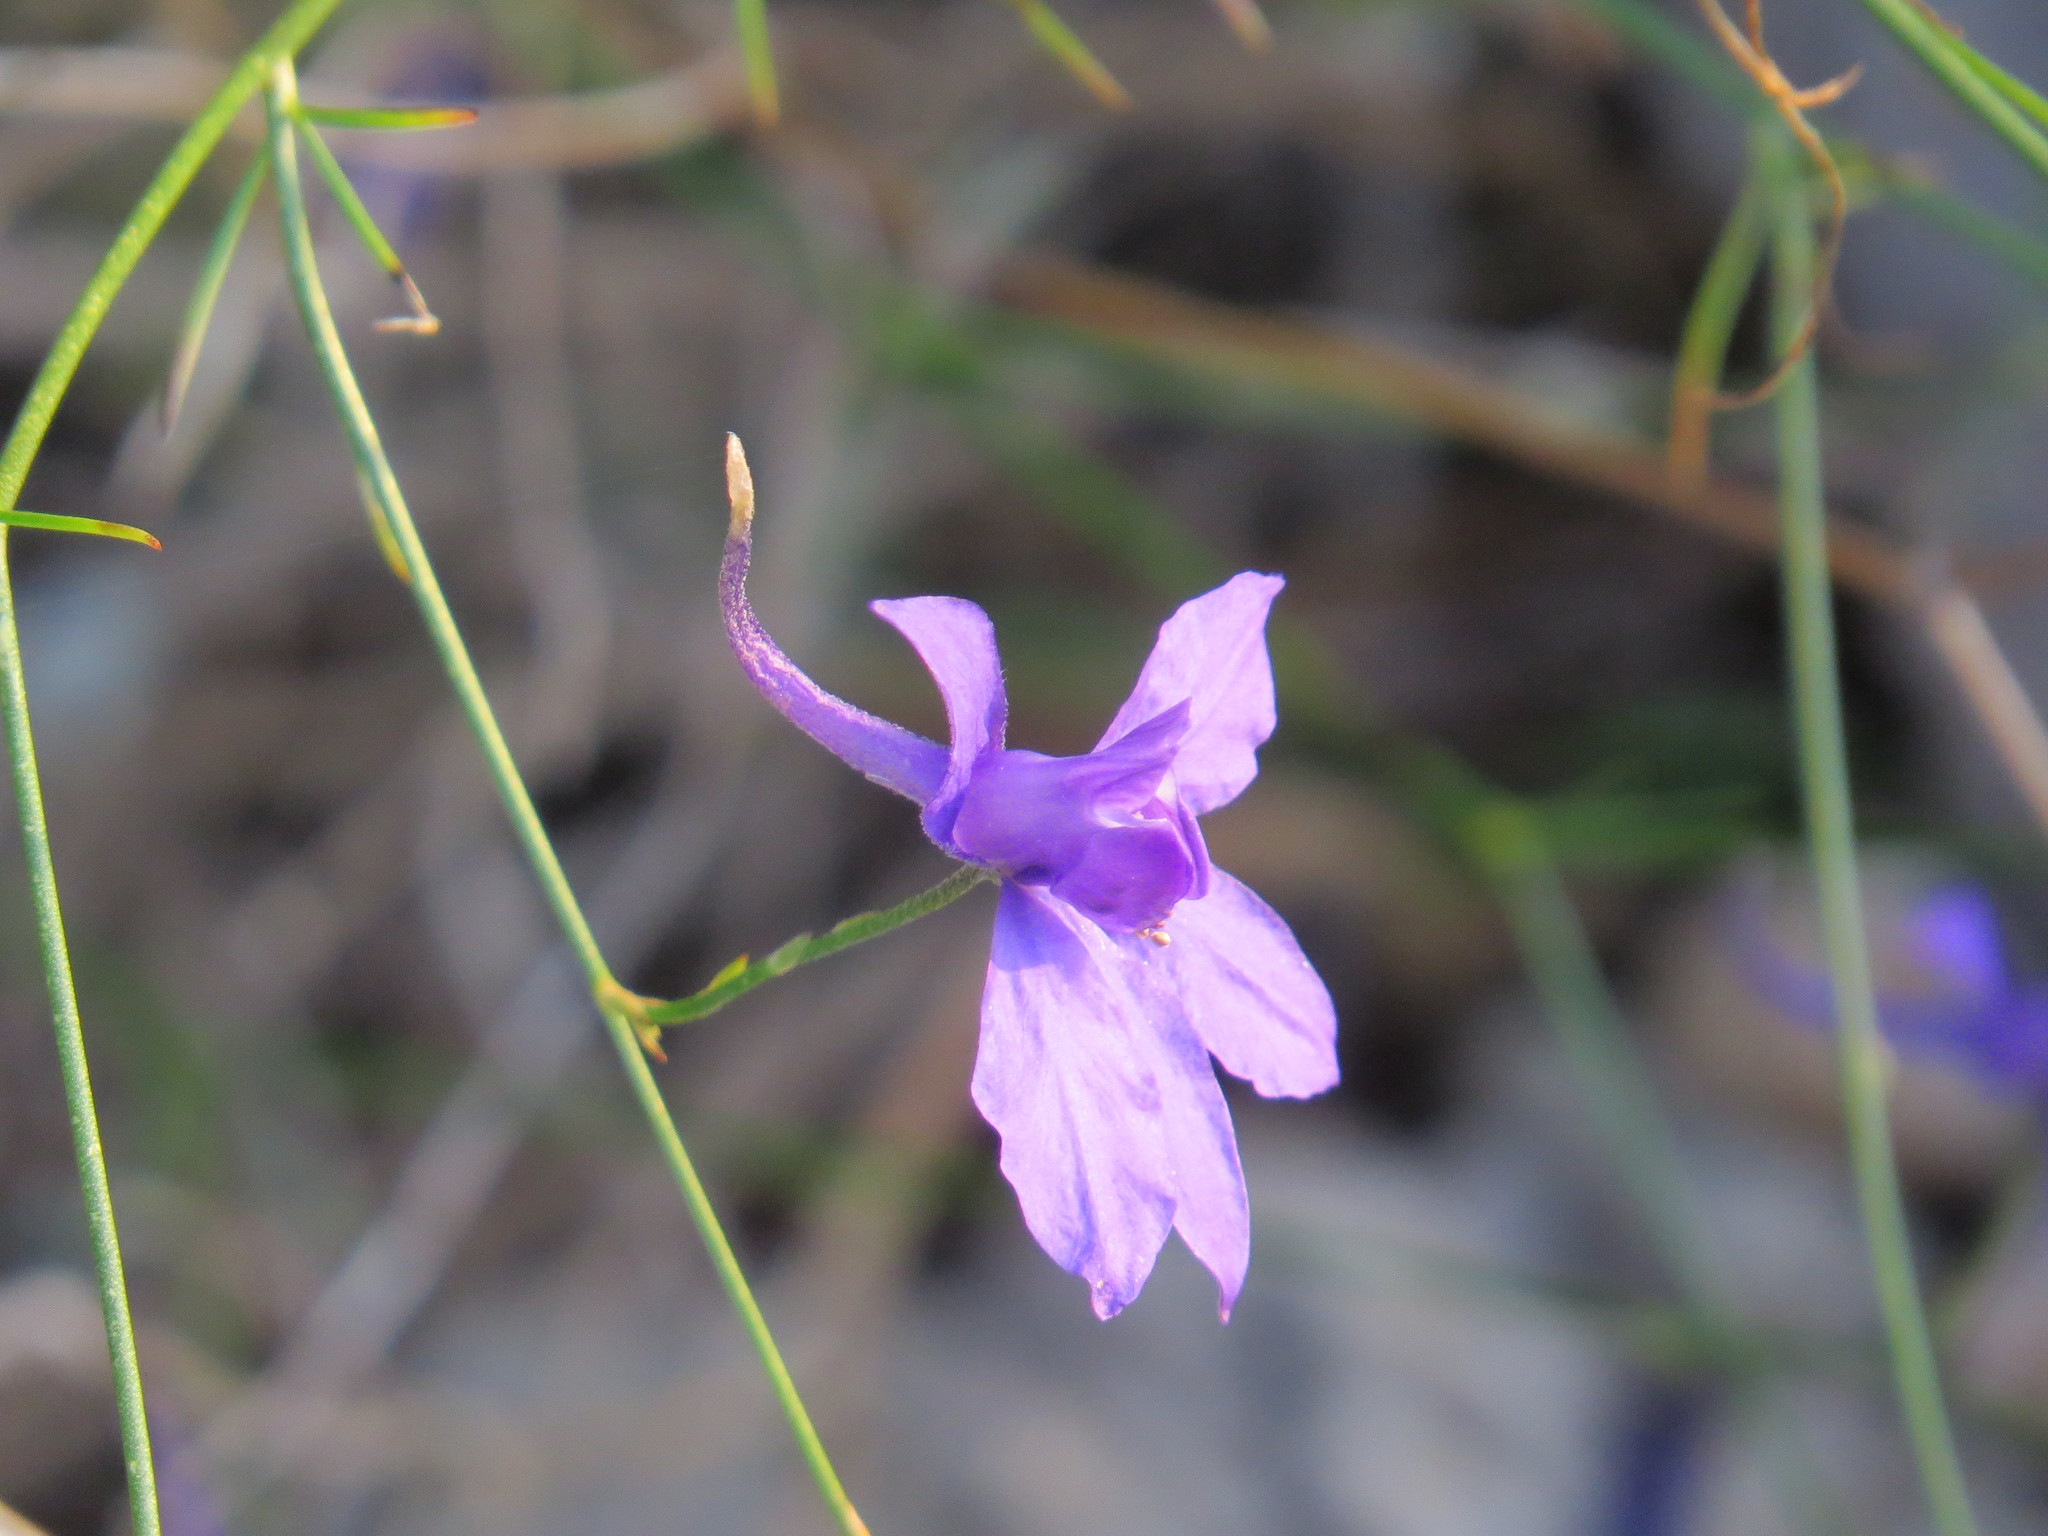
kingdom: Plantae
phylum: Tracheophyta
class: Magnoliopsida
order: Ranunculales
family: Ranunculaceae
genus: Delphinium
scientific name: Delphinium consolida
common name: Branching larkspur
